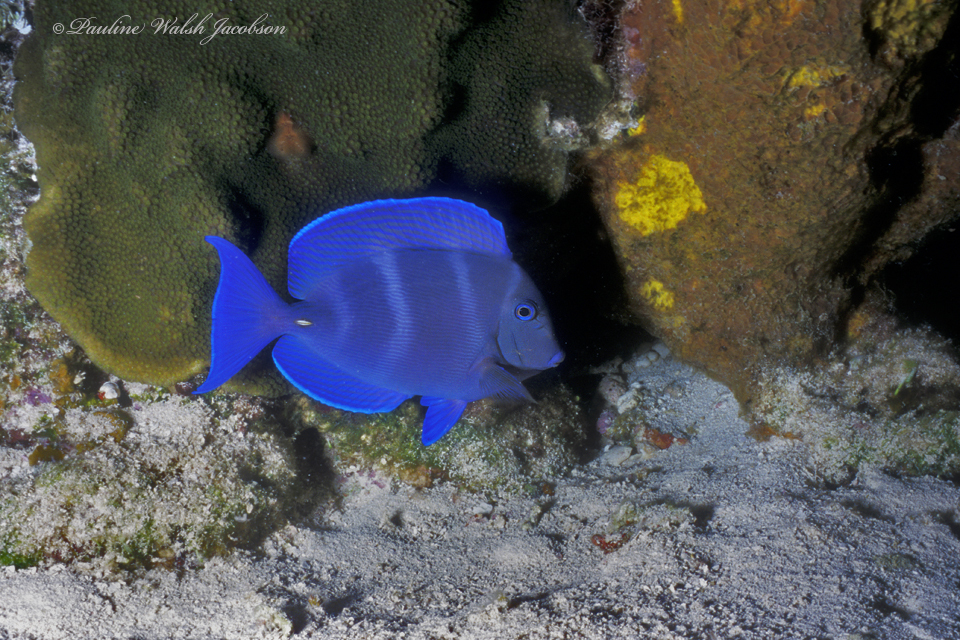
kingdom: Animalia
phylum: Chordata
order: Perciformes
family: Acanthuridae
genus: Acanthurus
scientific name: Acanthurus coeruleus
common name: Blue tang
